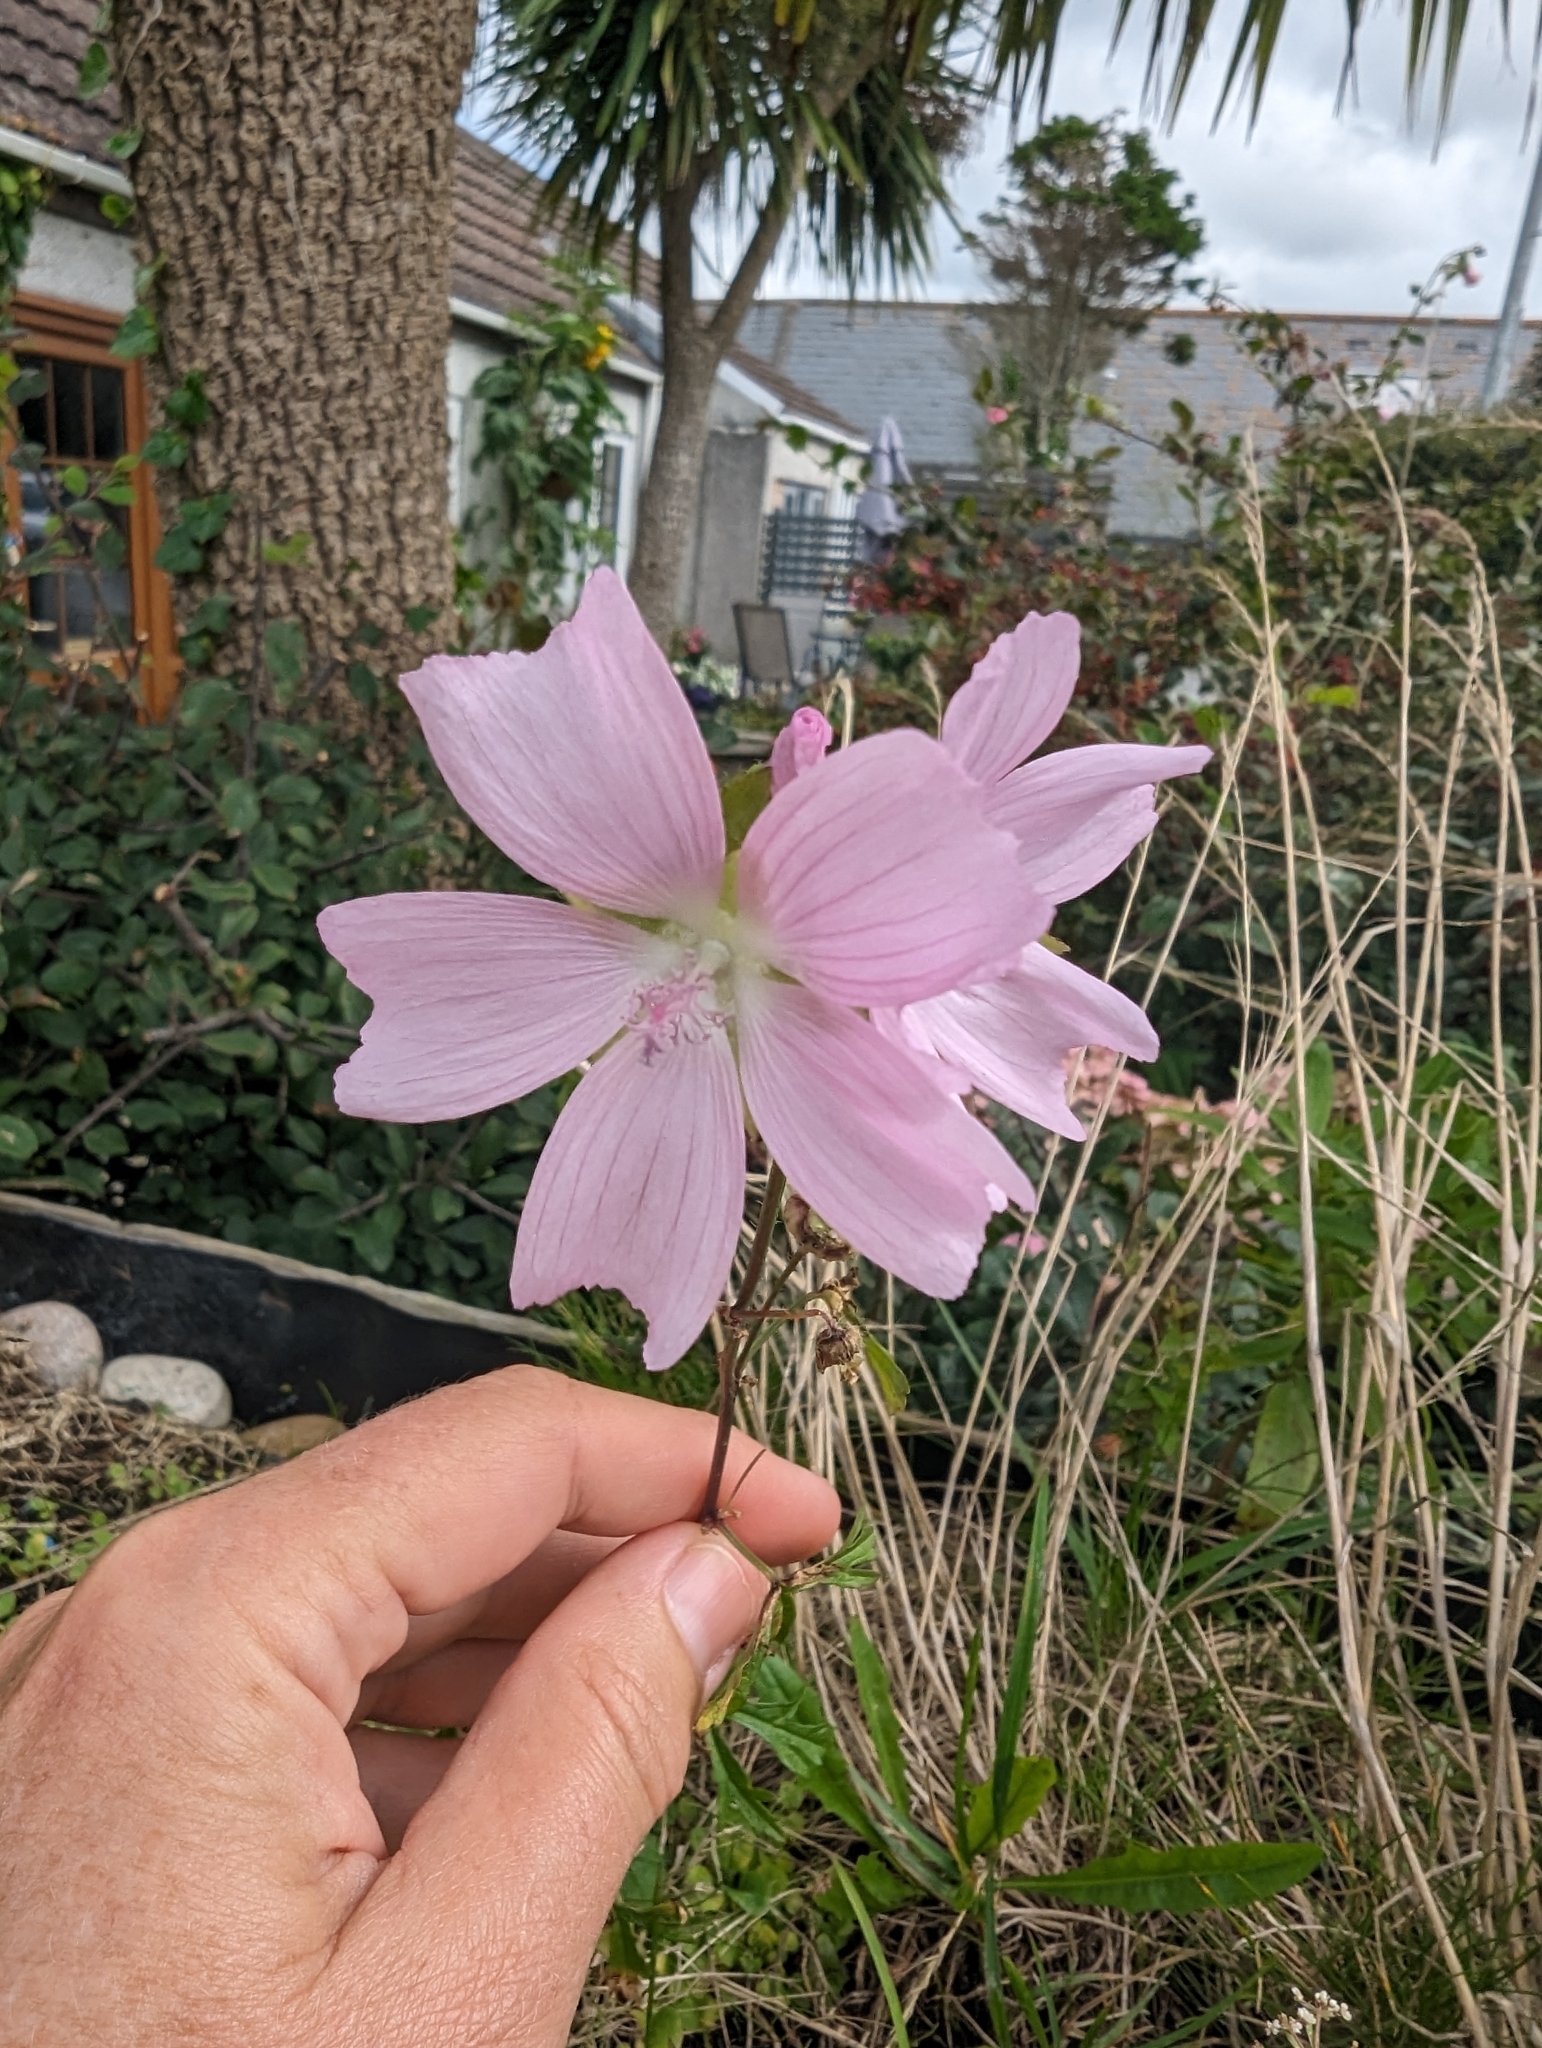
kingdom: Plantae
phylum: Tracheophyta
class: Magnoliopsida
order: Malvales
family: Malvaceae
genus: Malva
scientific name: Malva moschata
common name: Musk mallow
